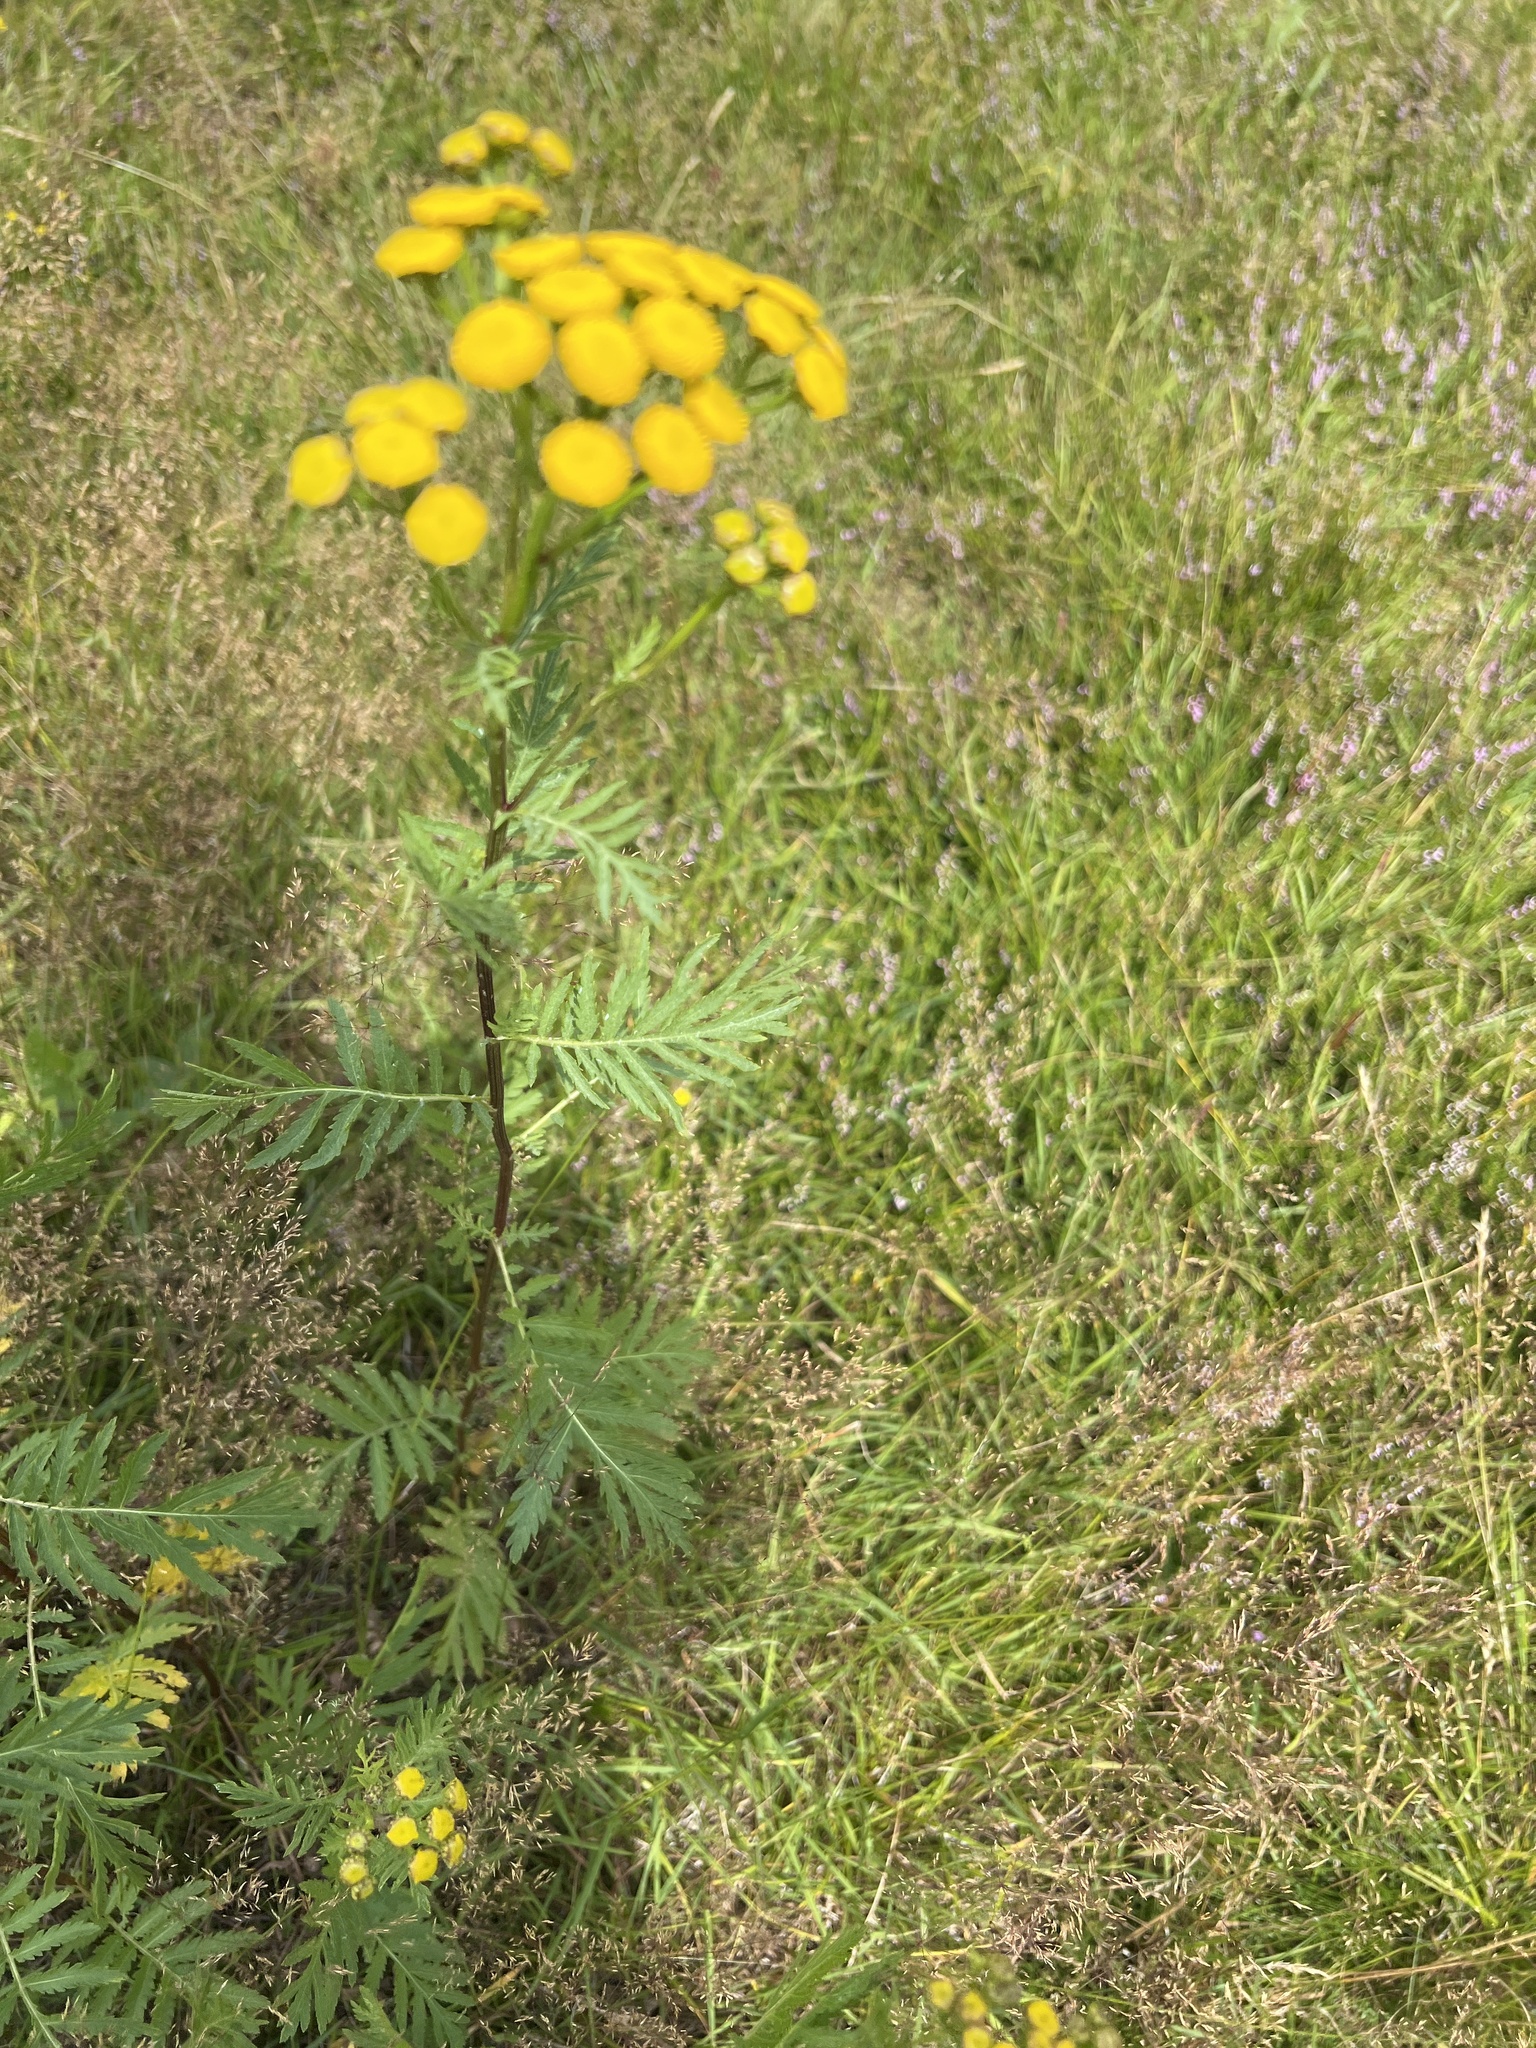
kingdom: Plantae
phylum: Tracheophyta
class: Magnoliopsida
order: Asterales
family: Asteraceae
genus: Tanacetum
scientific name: Tanacetum vulgare
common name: Common tansy
